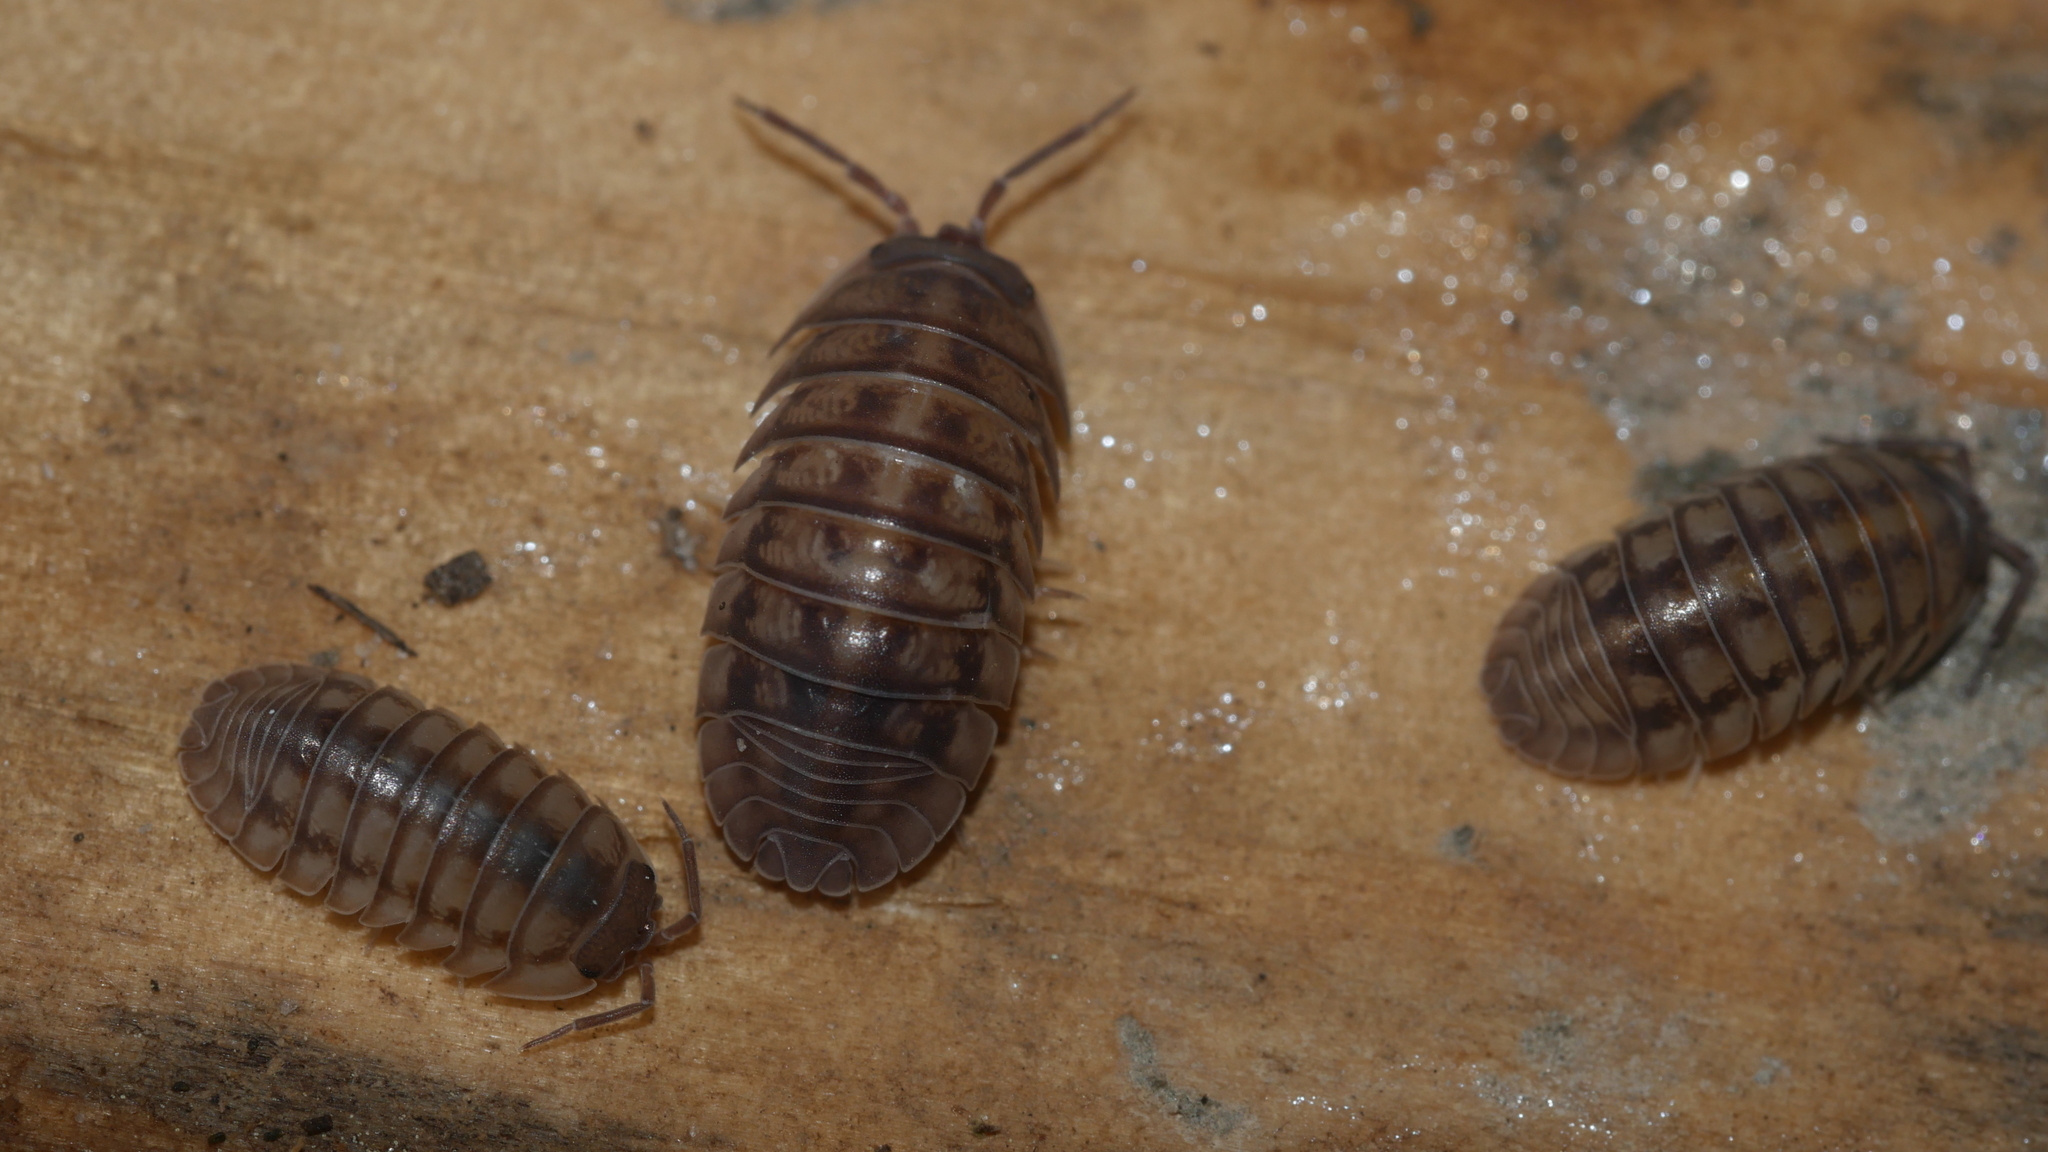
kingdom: Animalia
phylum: Arthropoda
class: Malacostraca
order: Isopoda
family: Armadillidiidae
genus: Armadillidium
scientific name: Armadillidium nasatum
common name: Isopod
